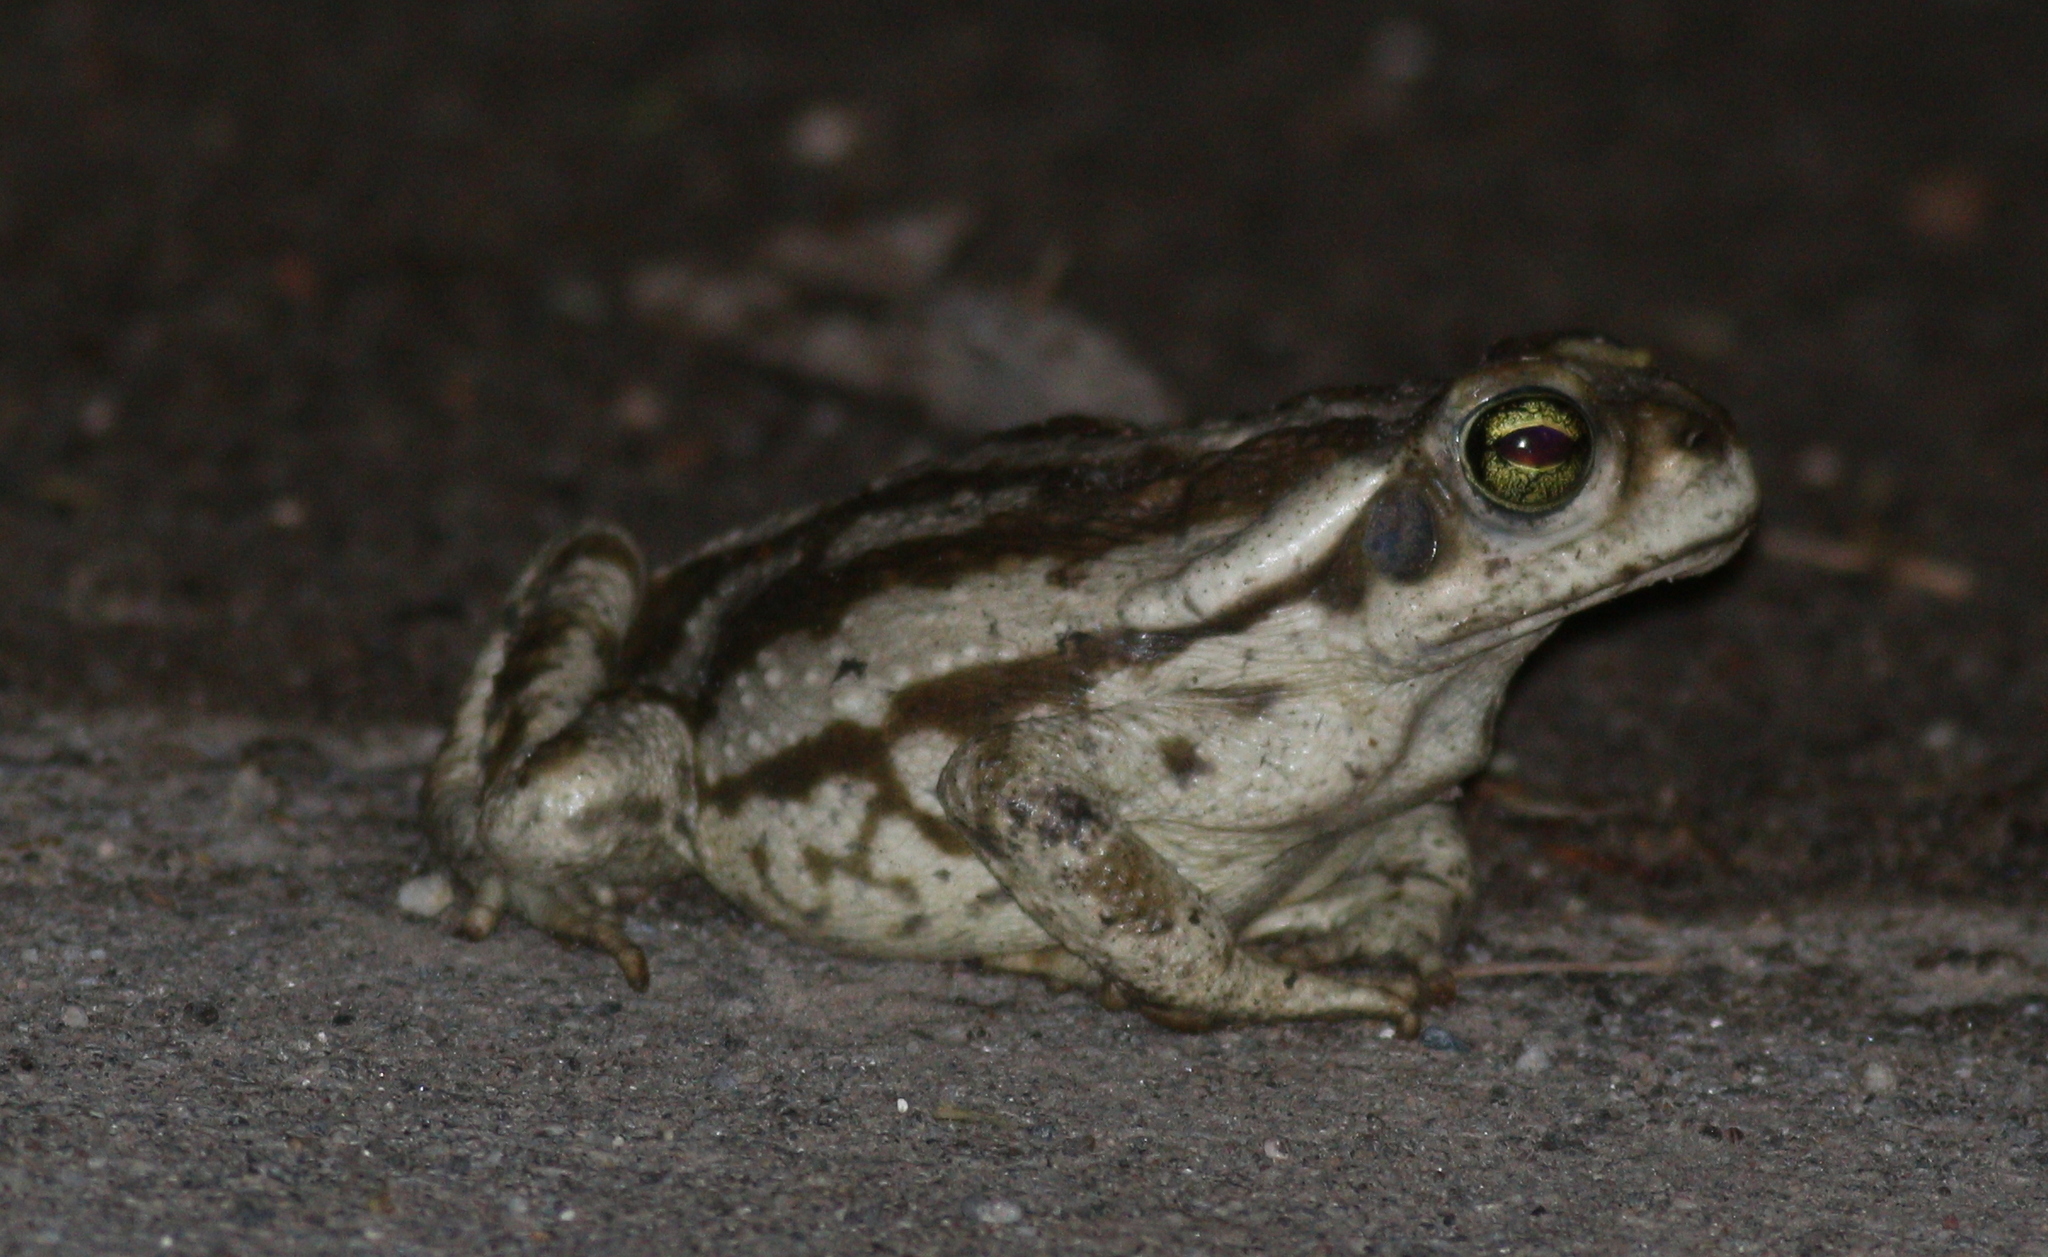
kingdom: Animalia
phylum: Chordata
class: Amphibia
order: Anura
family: Bufonidae
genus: Rhinella
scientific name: Rhinella arenarum
